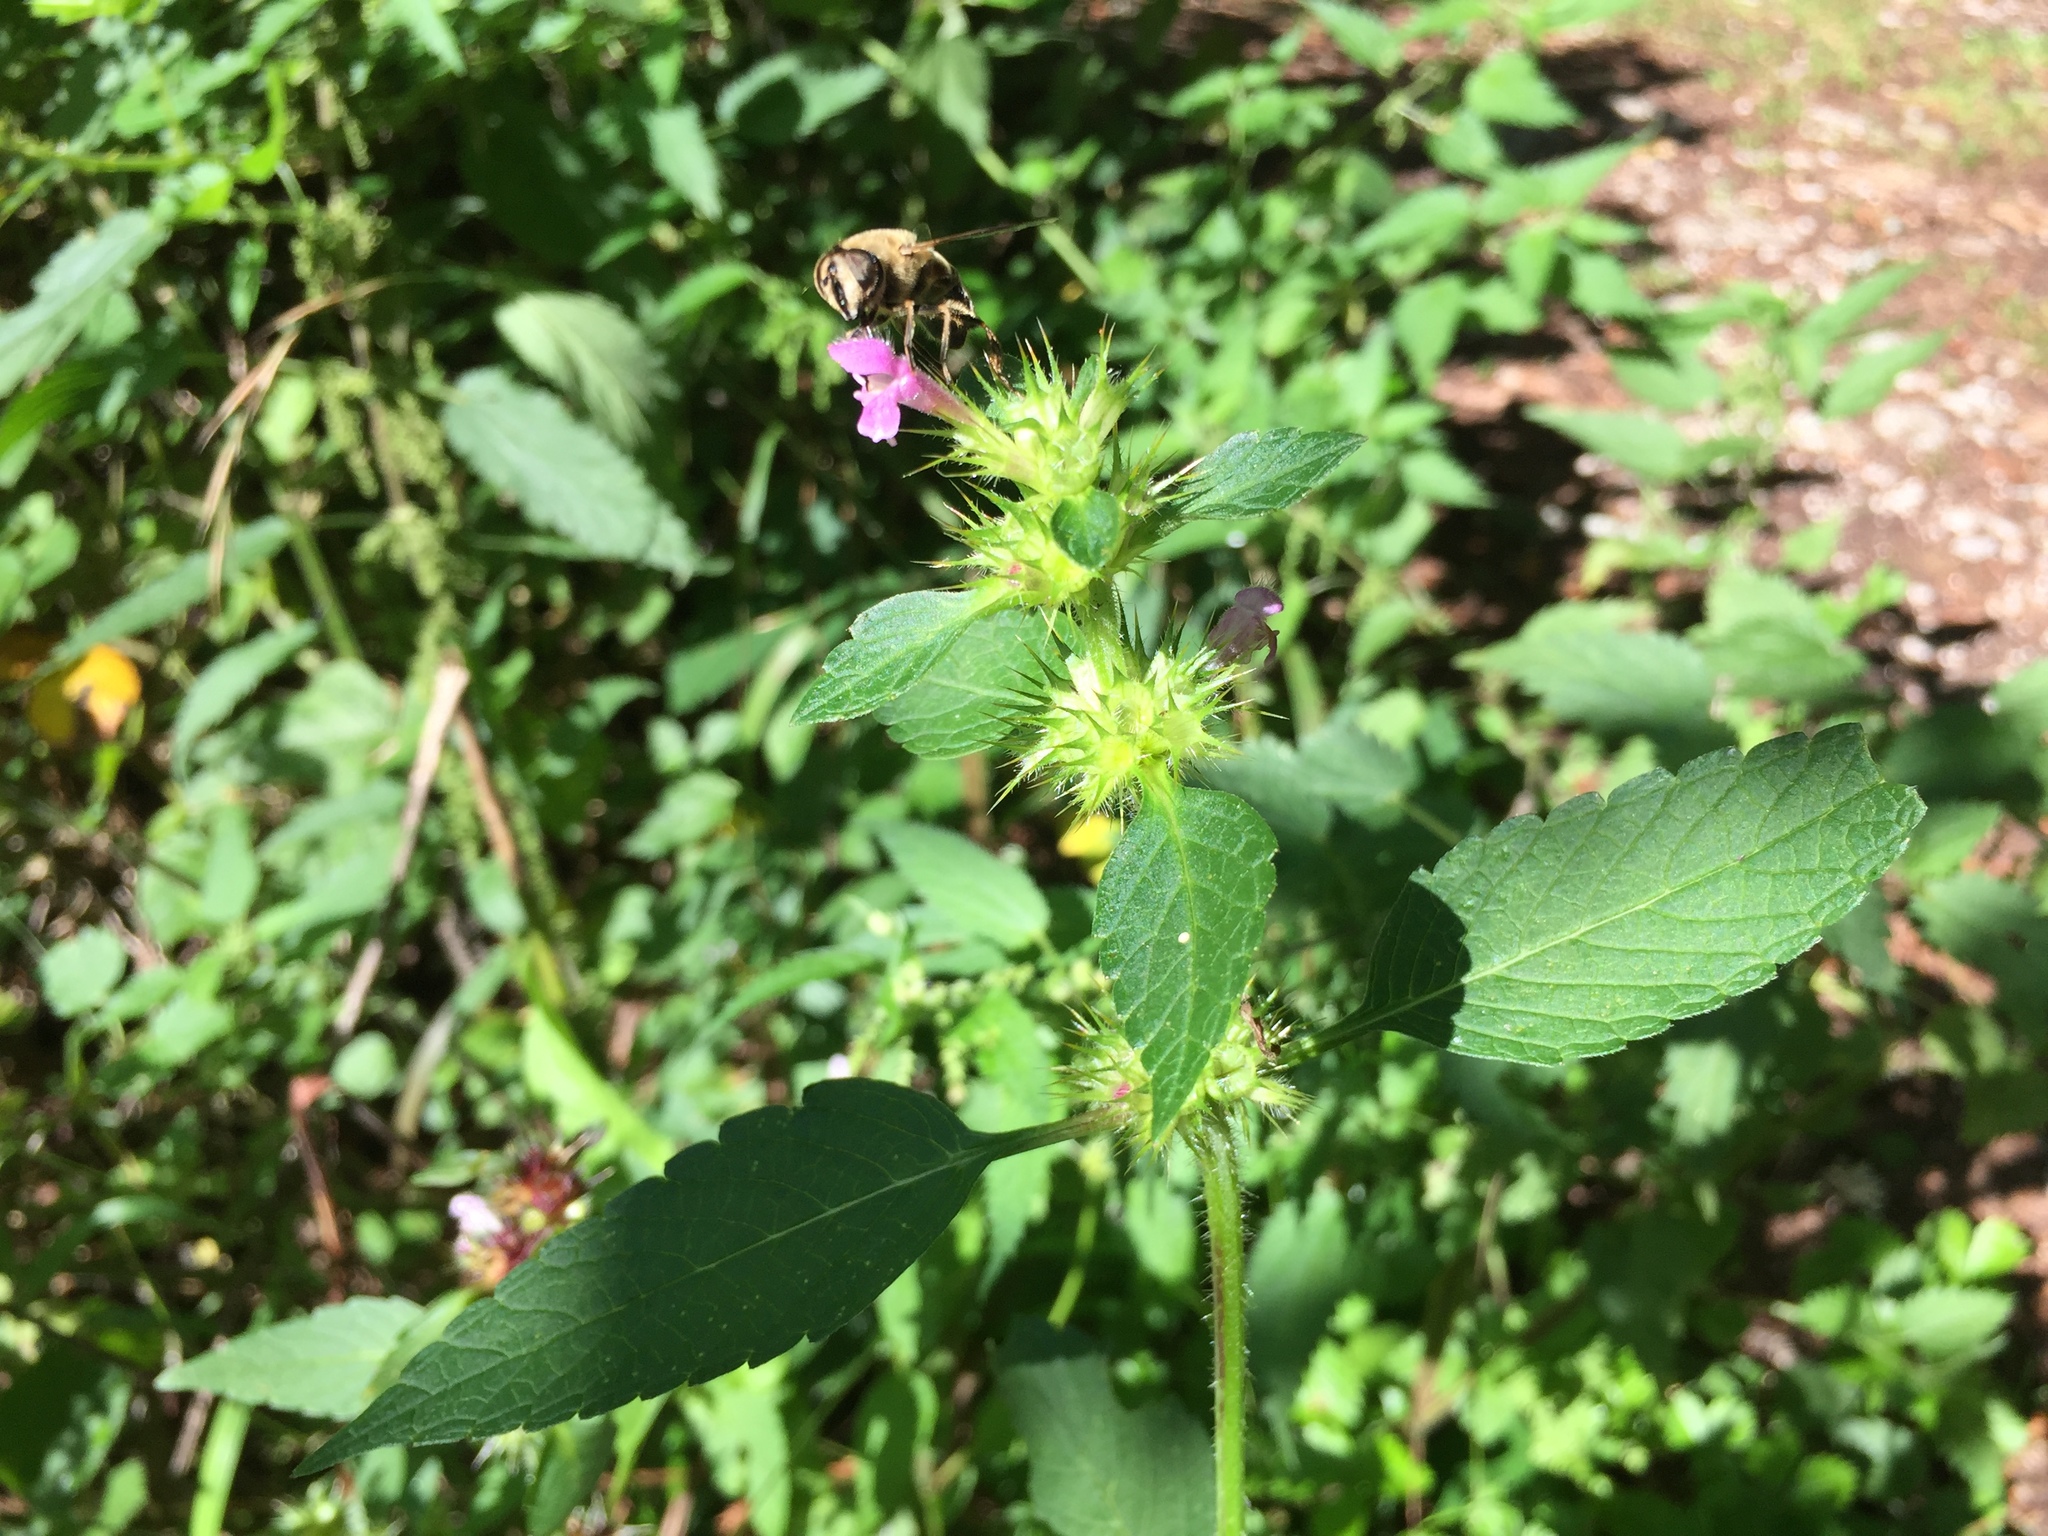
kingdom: Animalia
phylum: Arthropoda
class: Insecta
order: Diptera
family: Syrphidae
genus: Eristalis
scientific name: Eristalis tenax
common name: Drone fly
